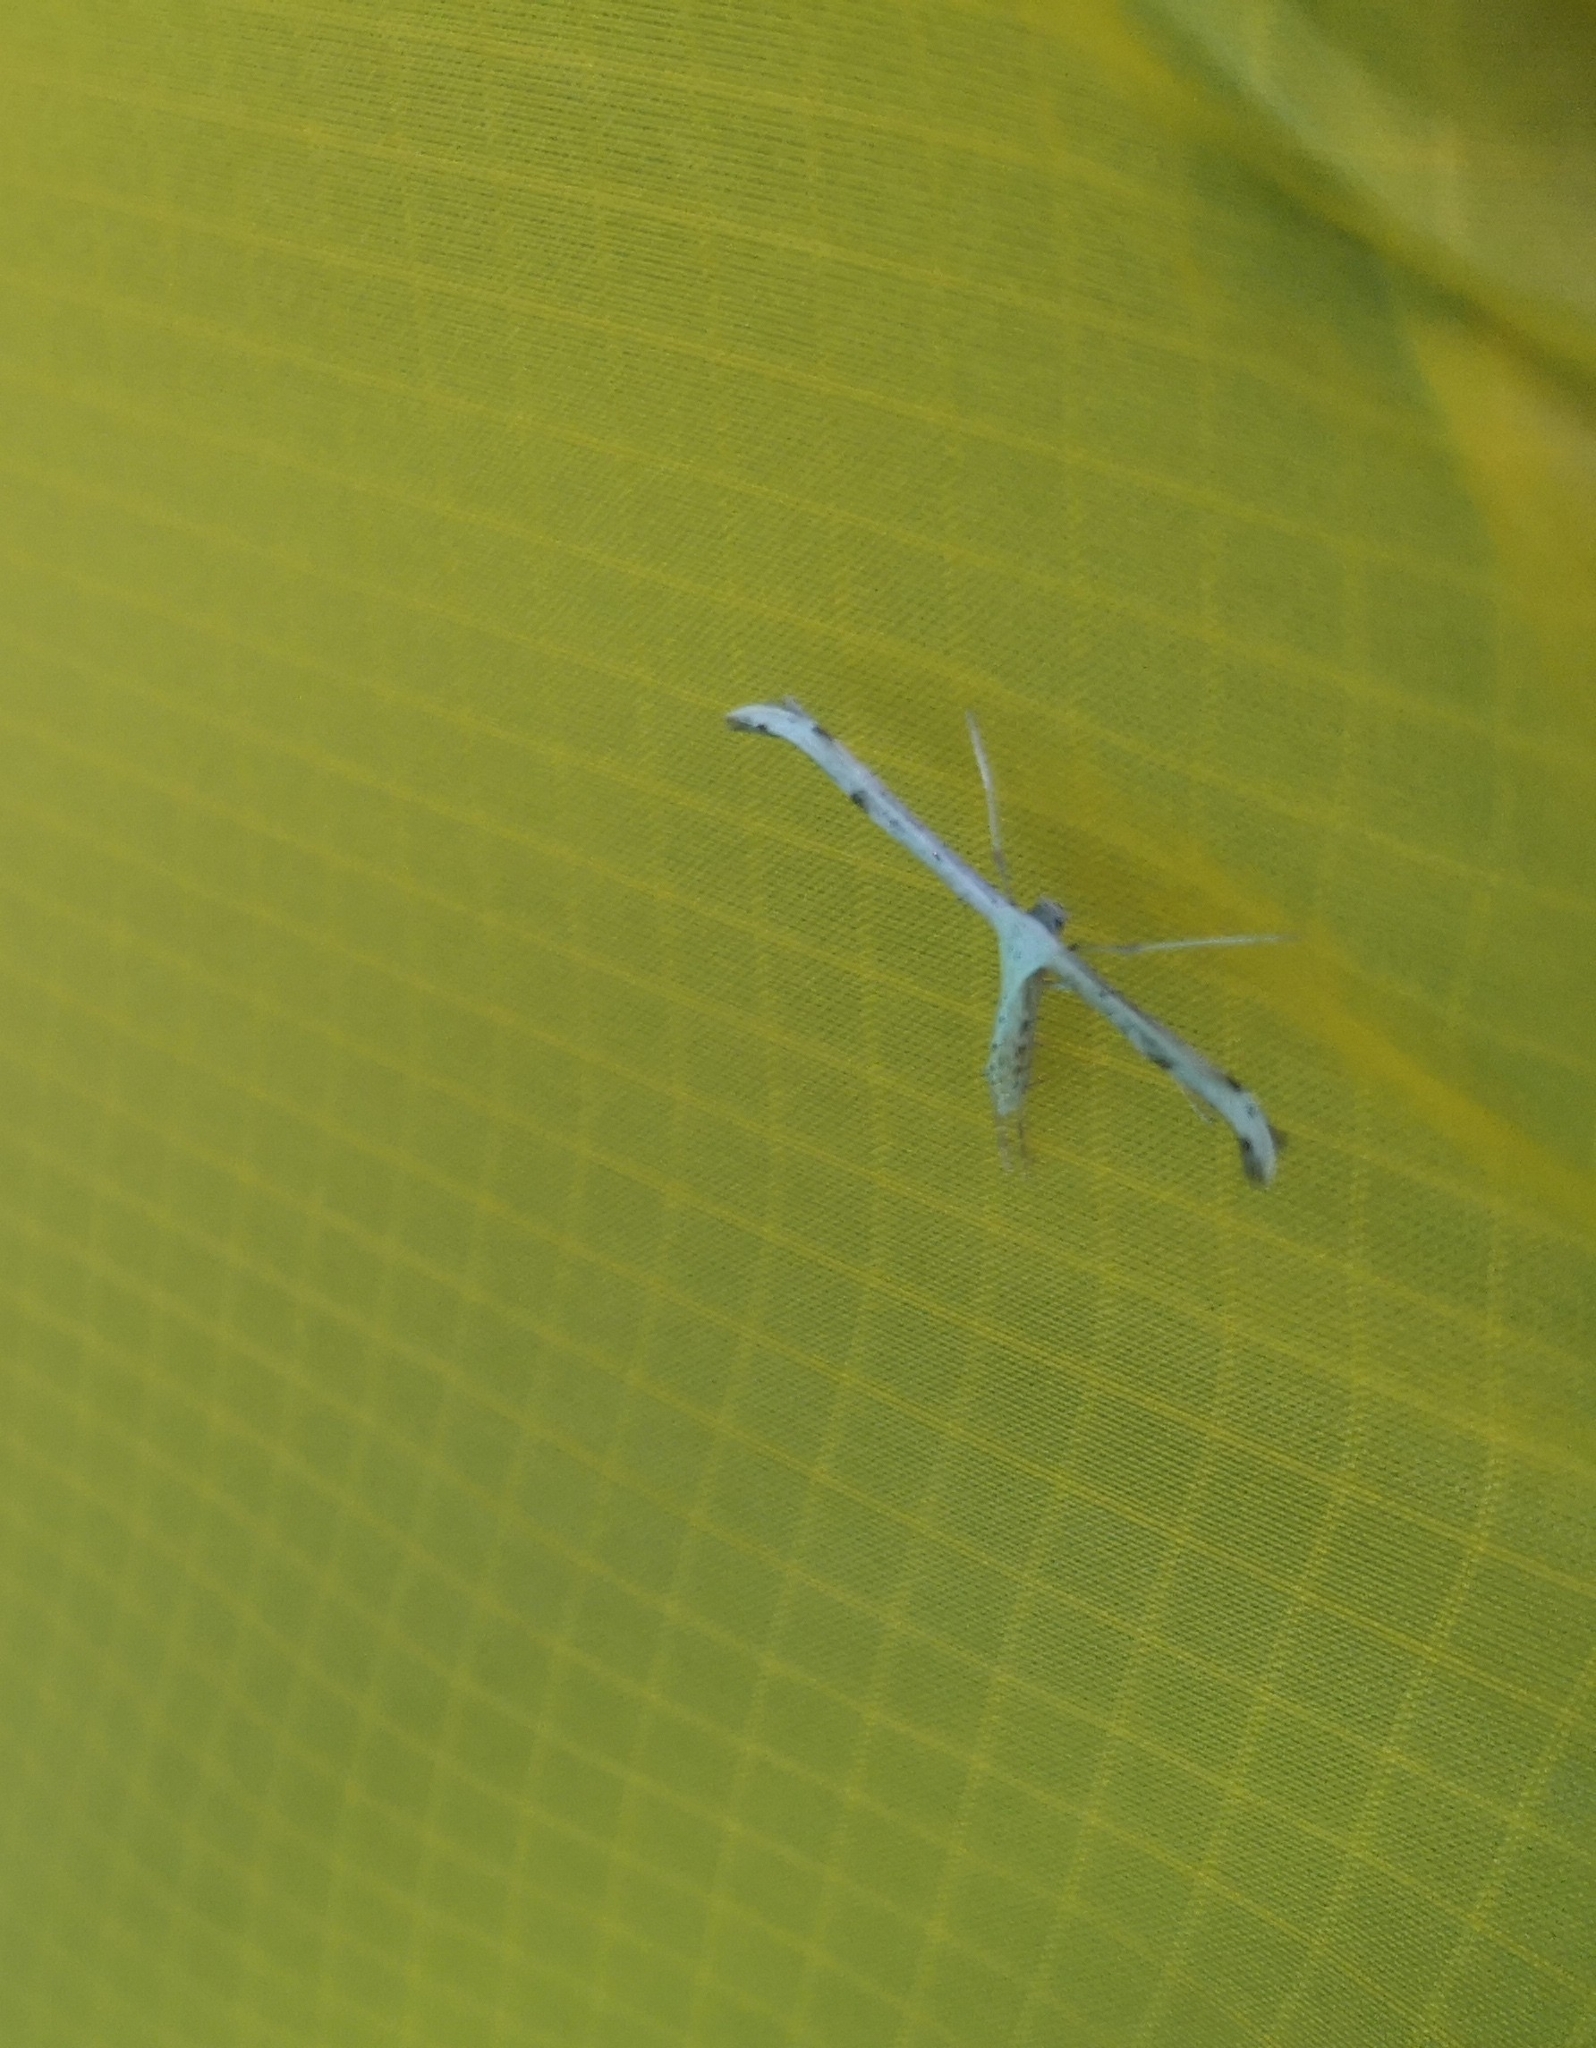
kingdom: Animalia
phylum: Arthropoda
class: Insecta
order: Lepidoptera
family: Pterophoridae
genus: Emmelina
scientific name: Emmelina monodactyla
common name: Common plume
